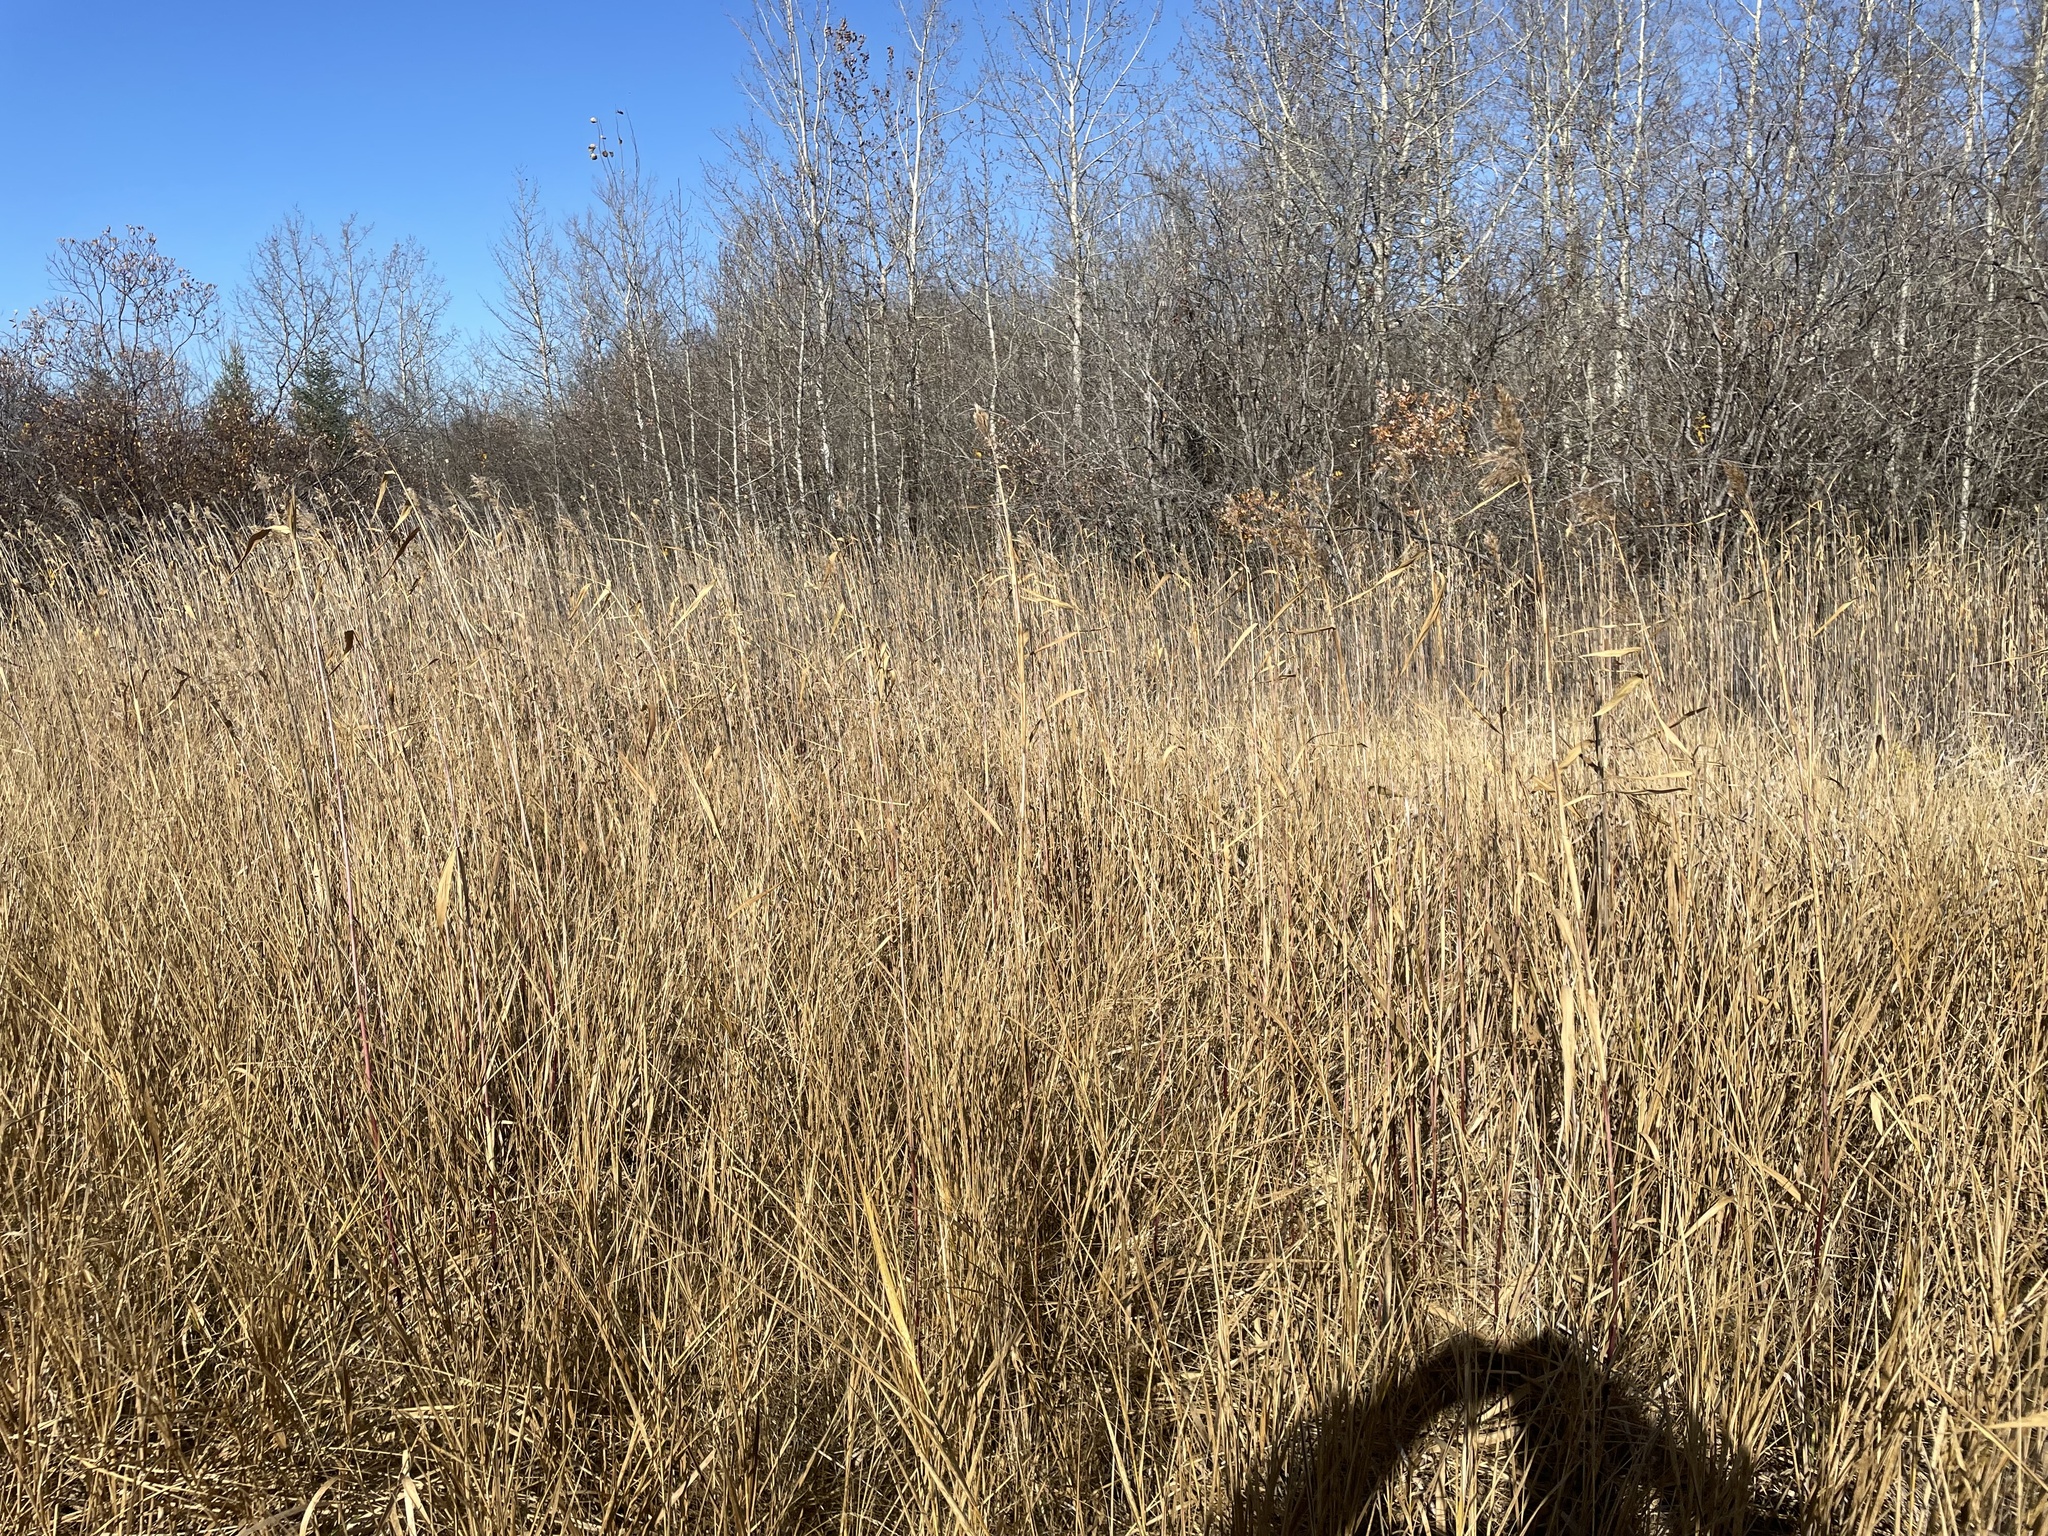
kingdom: Plantae
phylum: Tracheophyta
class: Liliopsida
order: Poales
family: Poaceae
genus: Phragmites
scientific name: Phragmites australis
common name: Common reed
